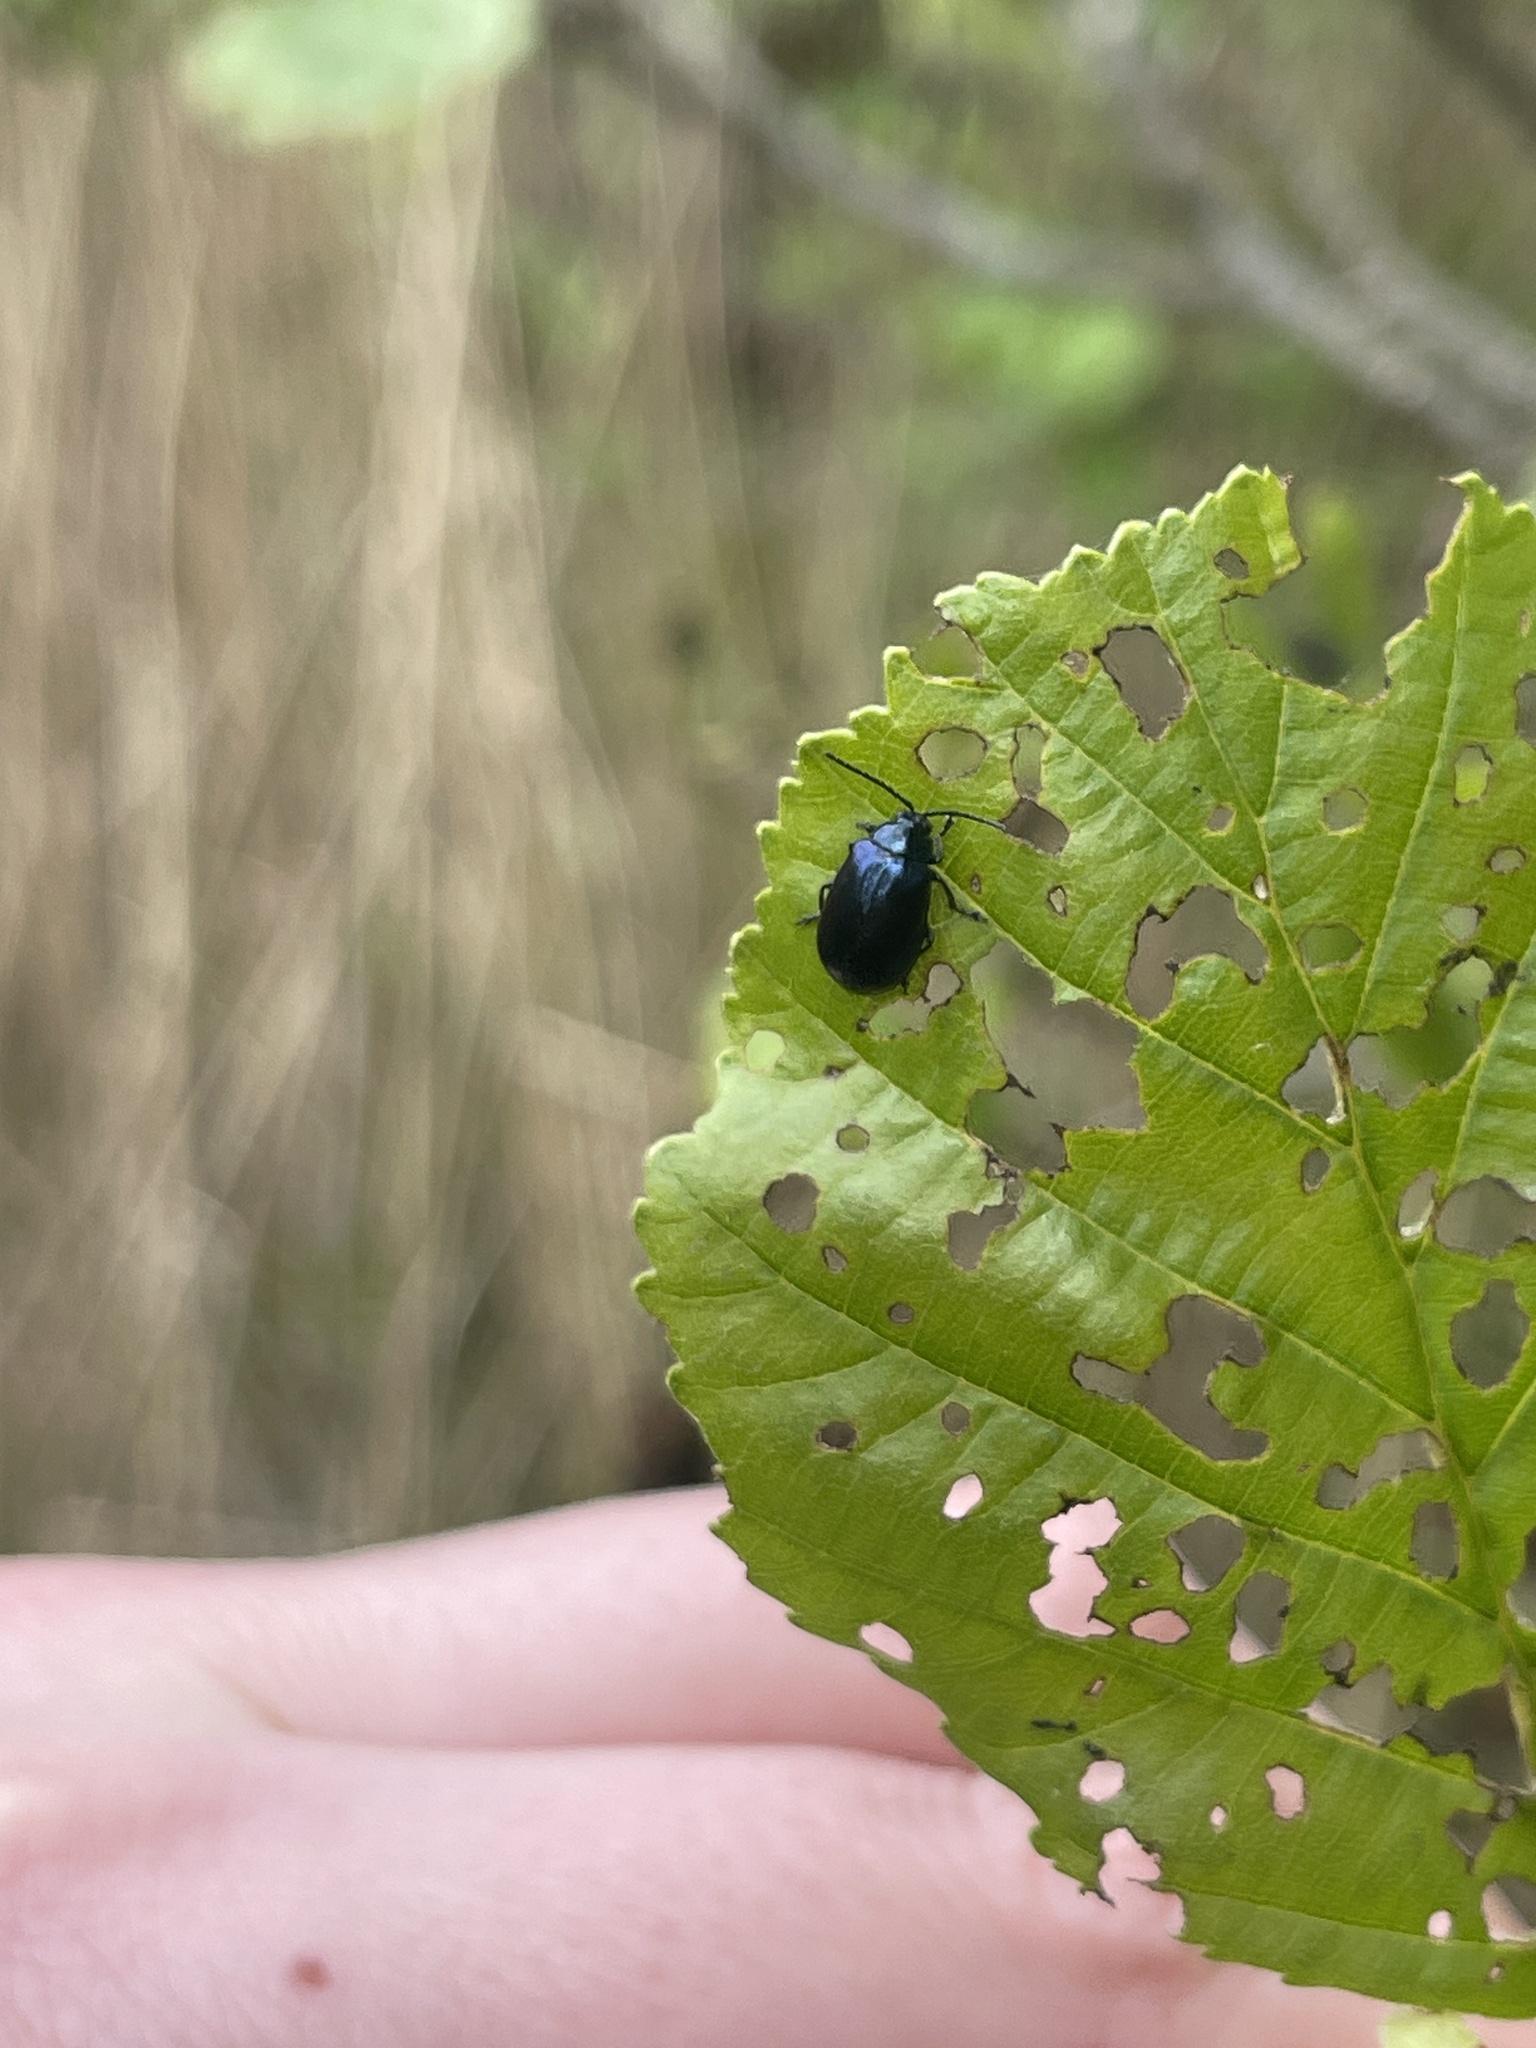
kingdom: Animalia
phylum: Arthropoda
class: Insecta
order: Coleoptera
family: Chrysomelidae
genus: Agelastica
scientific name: Agelastica alni
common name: Alder leaf beetle
